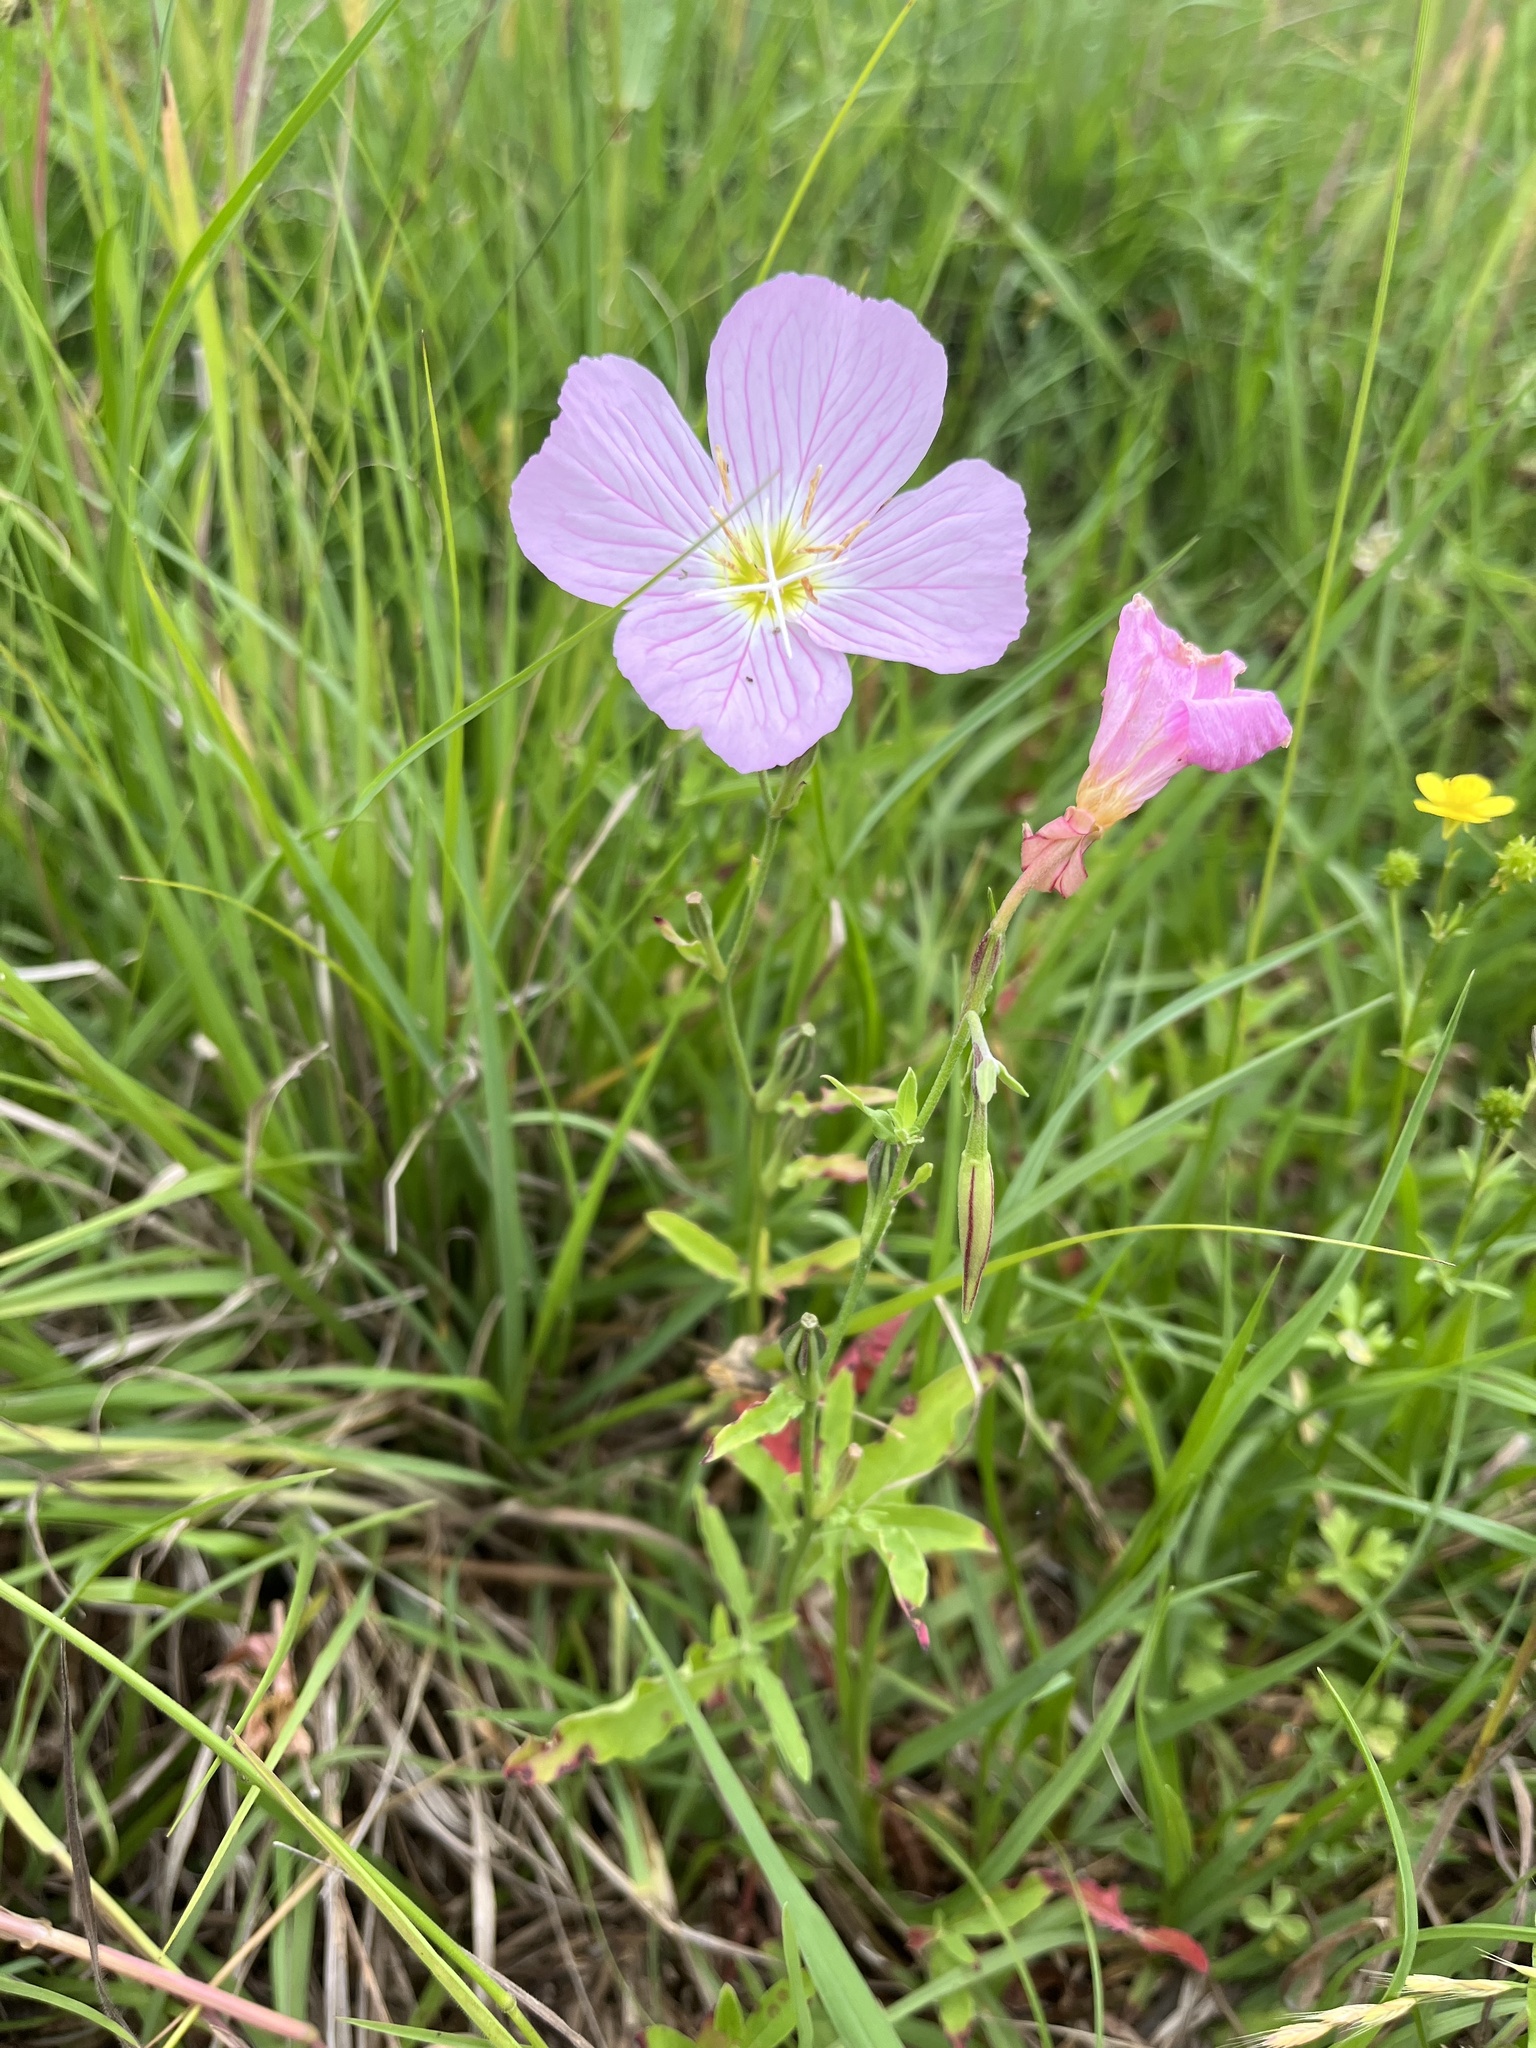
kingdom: Plantae
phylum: Tracheophyta
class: Magnoliopsida
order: Myrtales
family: Onagraceae
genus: Oenothera
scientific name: Oenothera speciosa
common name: White evening-primrose
